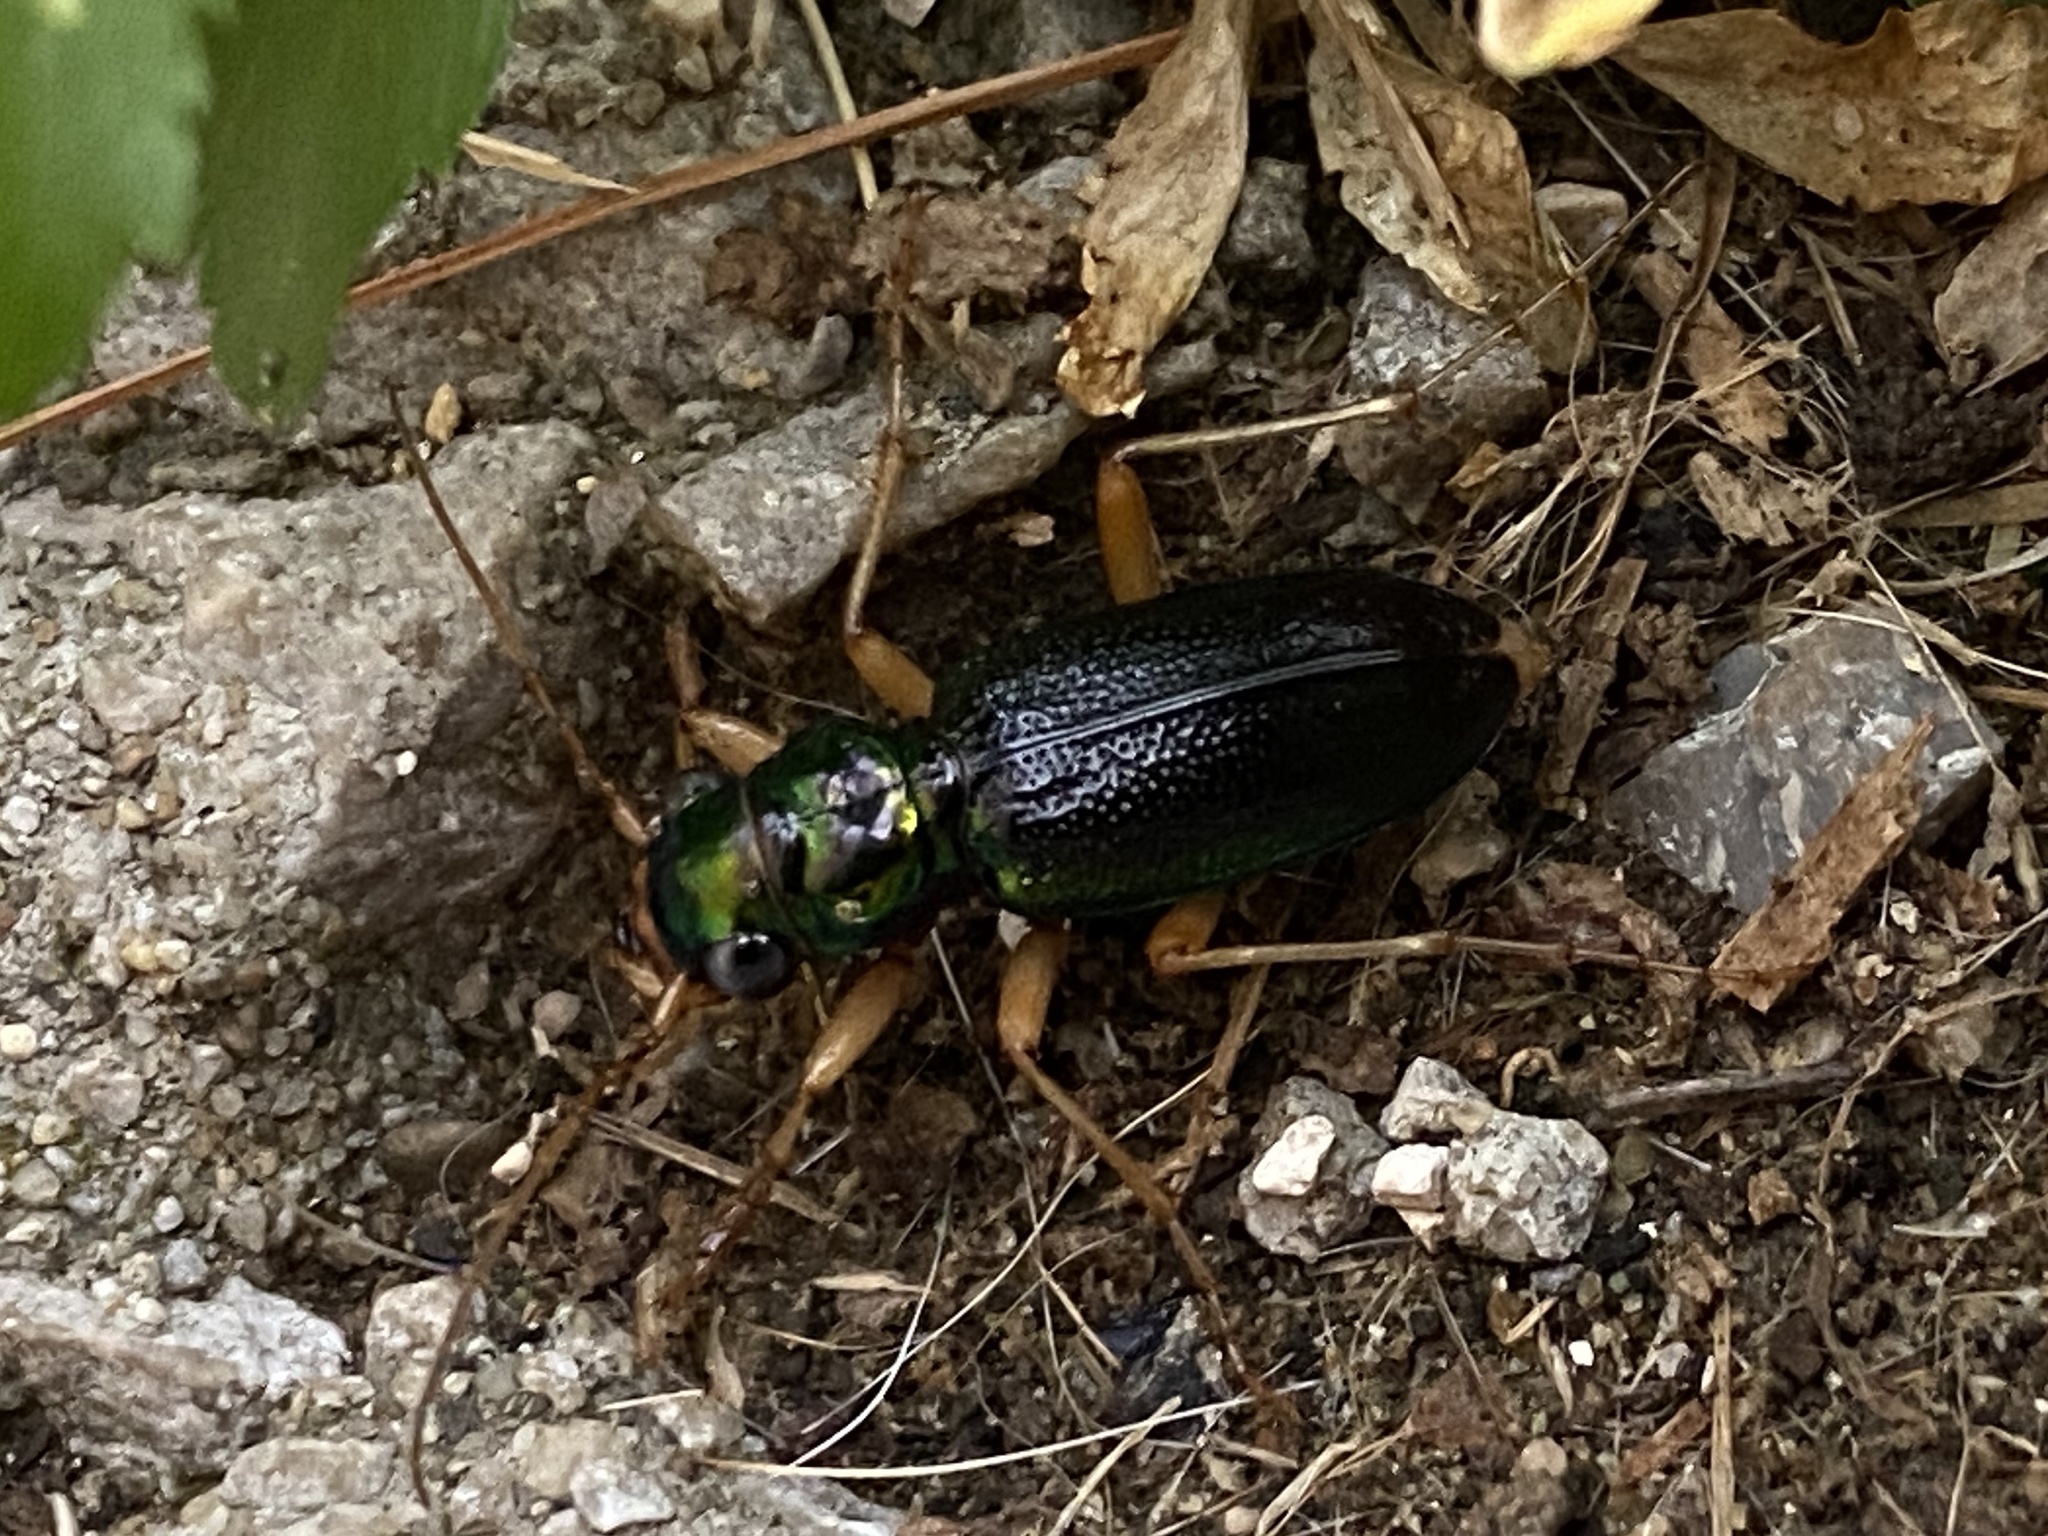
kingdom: Animalia
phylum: Arthropoda
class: Insecta
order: Coleoptera
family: Carabidae
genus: Tetracha
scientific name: Tetracha virginica
